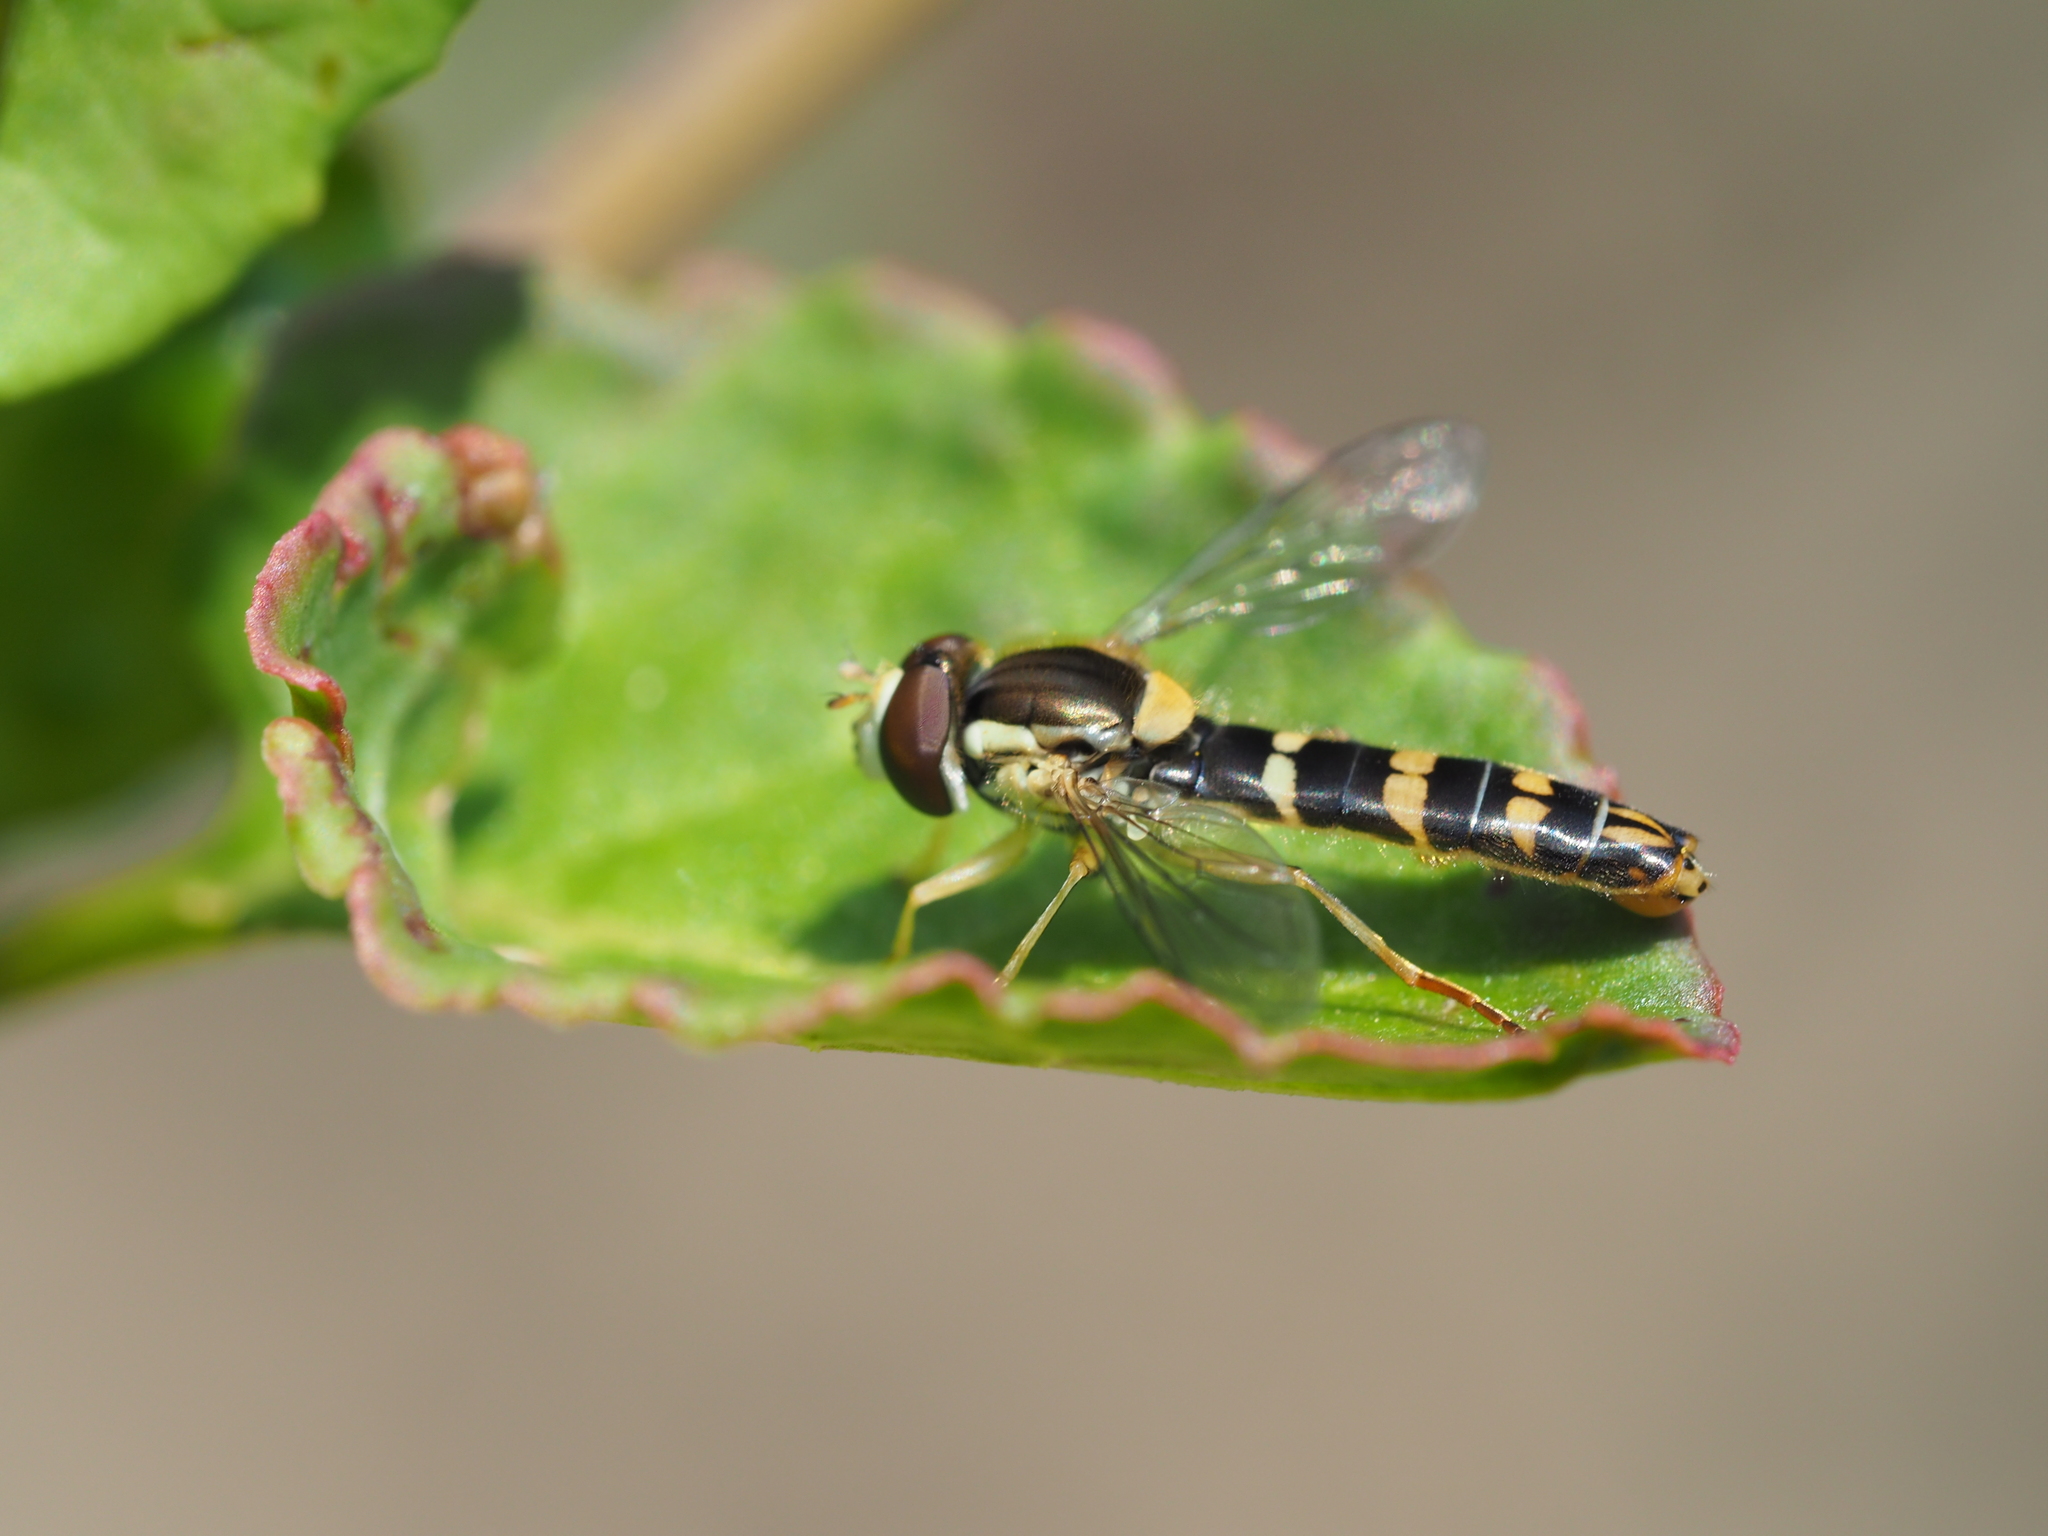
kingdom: Animalia
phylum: Arthropoda
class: Insecta
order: Diptera
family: Syrphidae
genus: Sphaerophoria
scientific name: Sphaerophoria scripta
